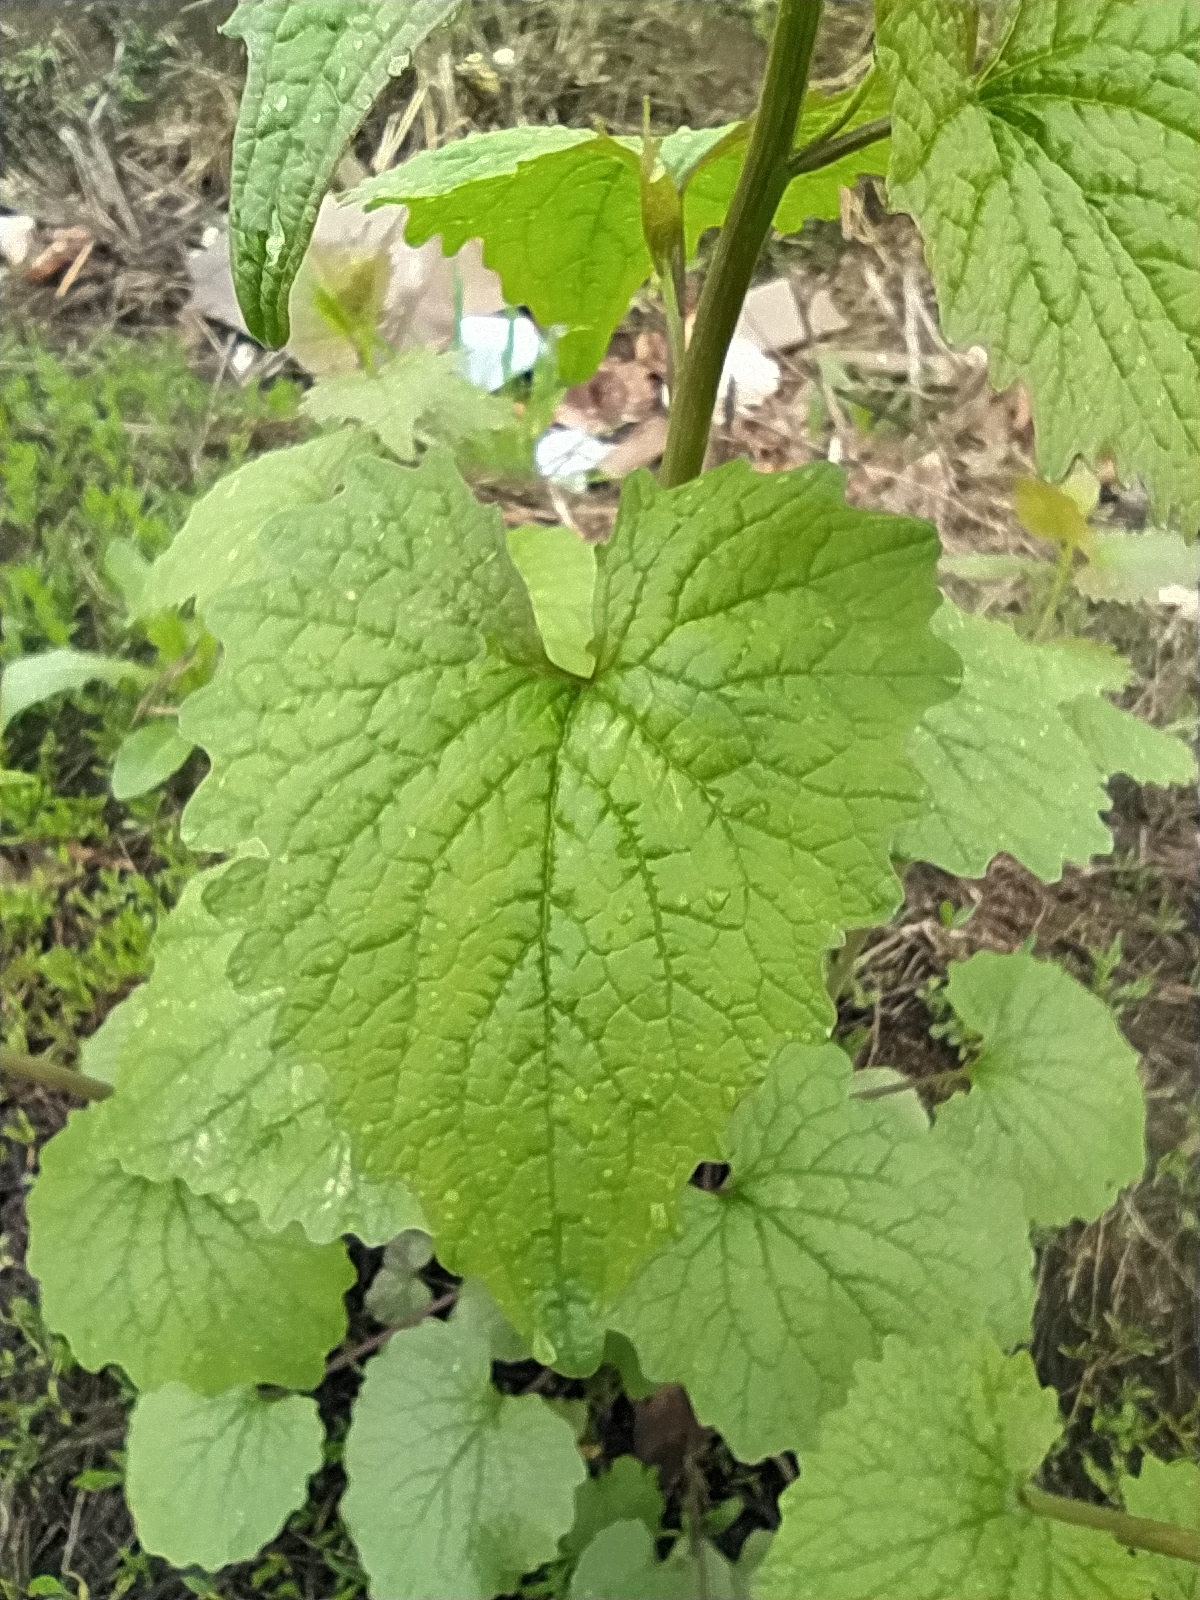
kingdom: Plantae
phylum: Tracheophyta
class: Magnoliopsida
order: Brassicales
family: Brassicaceae
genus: Alliaria
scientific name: Alliaria petiolata
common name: Garlic mustard
